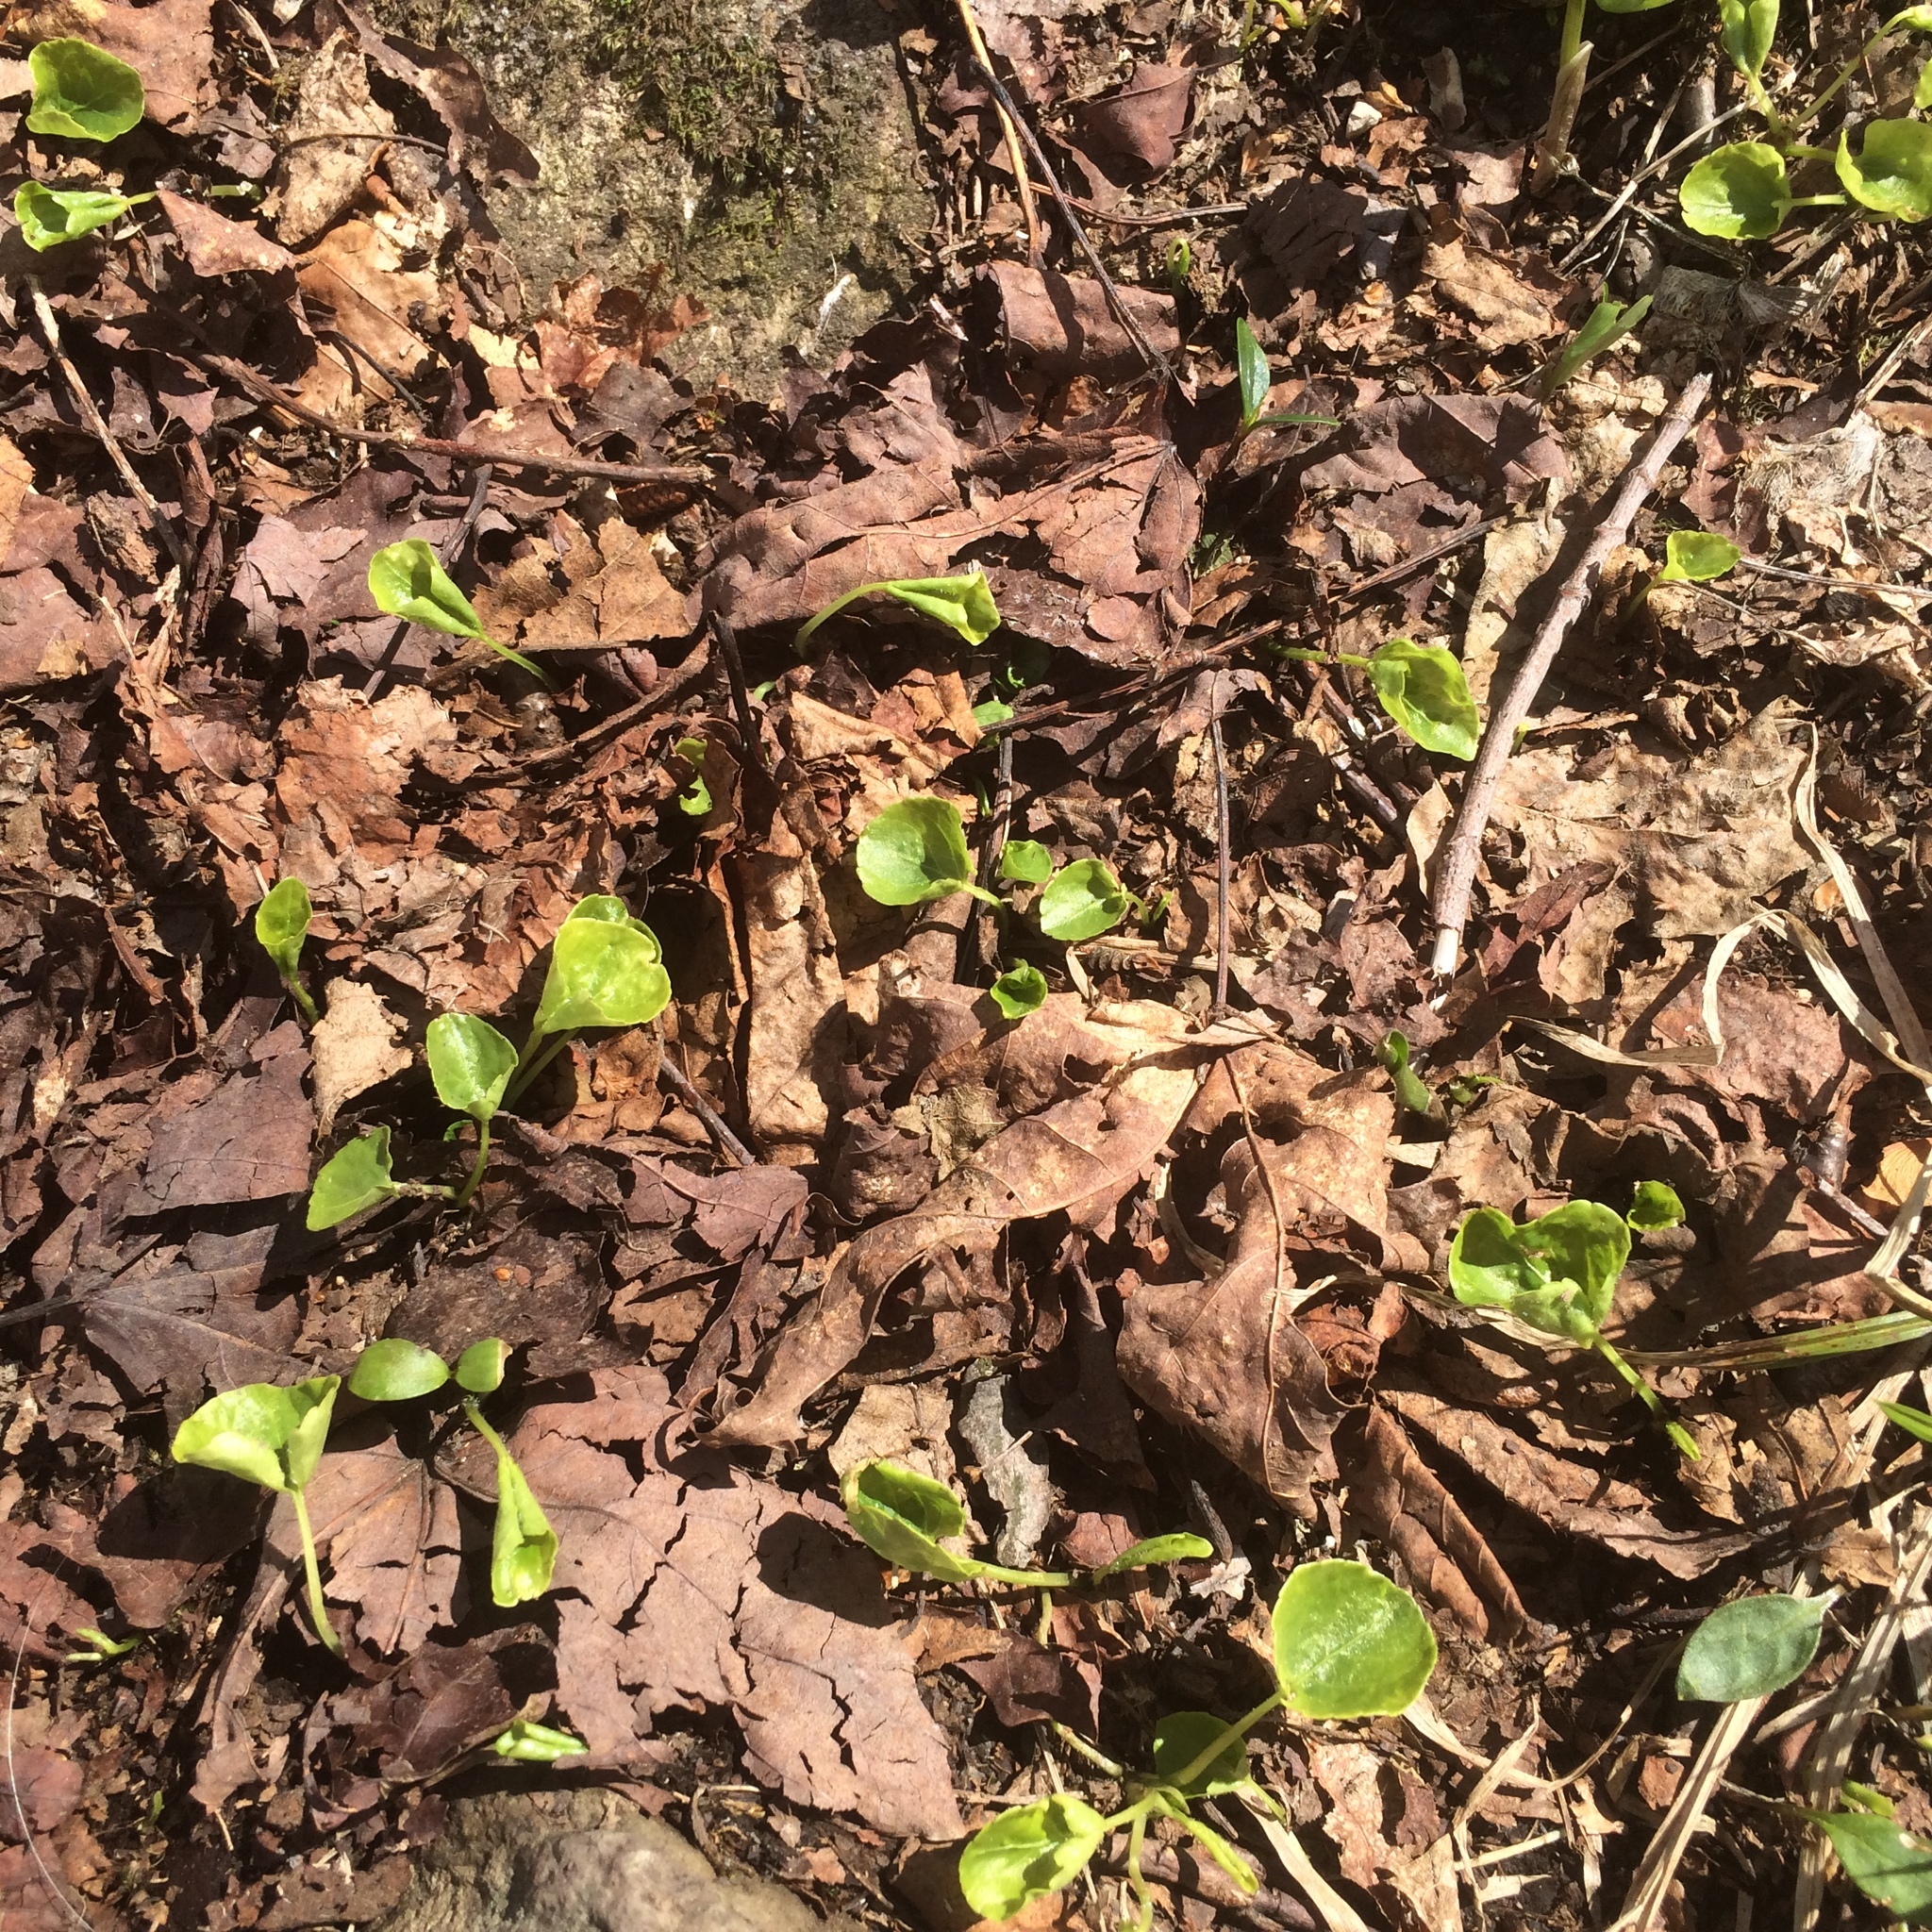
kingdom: Plantae
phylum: Tracheophyta
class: Magnoliopsida
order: Malpighiales
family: Violaceae
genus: Viola
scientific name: Viola incognita
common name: Largeleaf white violet
